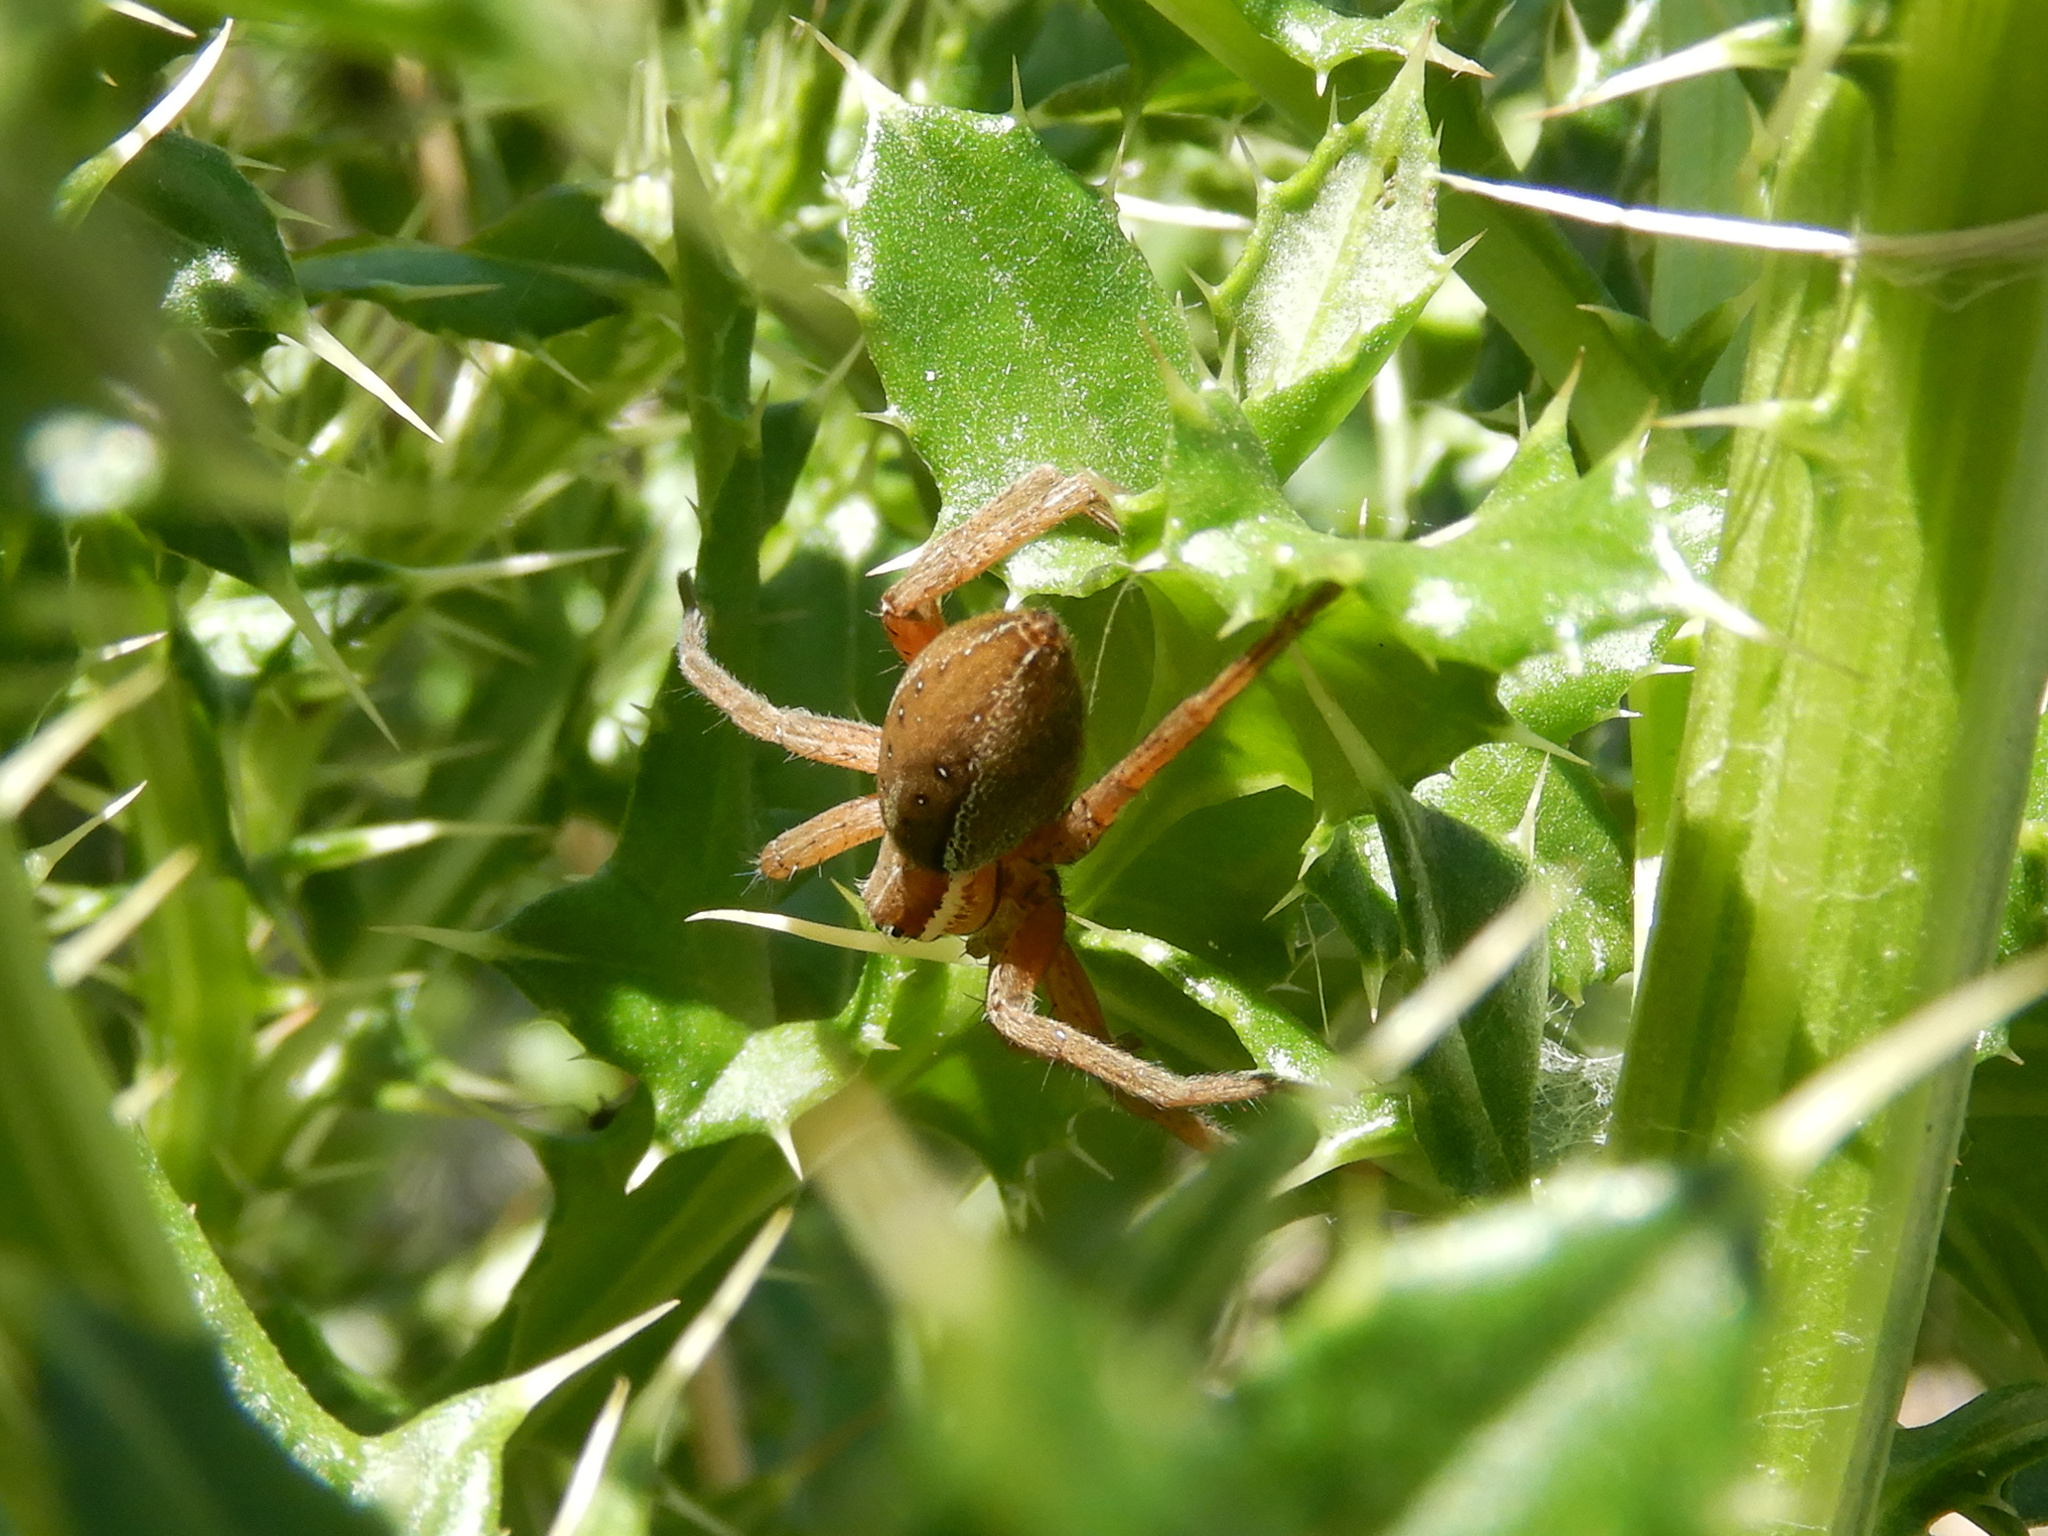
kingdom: Animalia
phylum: Arthropoda
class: Arachnida
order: Araneae
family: Pisauridae
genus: Dolomedes
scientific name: Dolomedes minor
